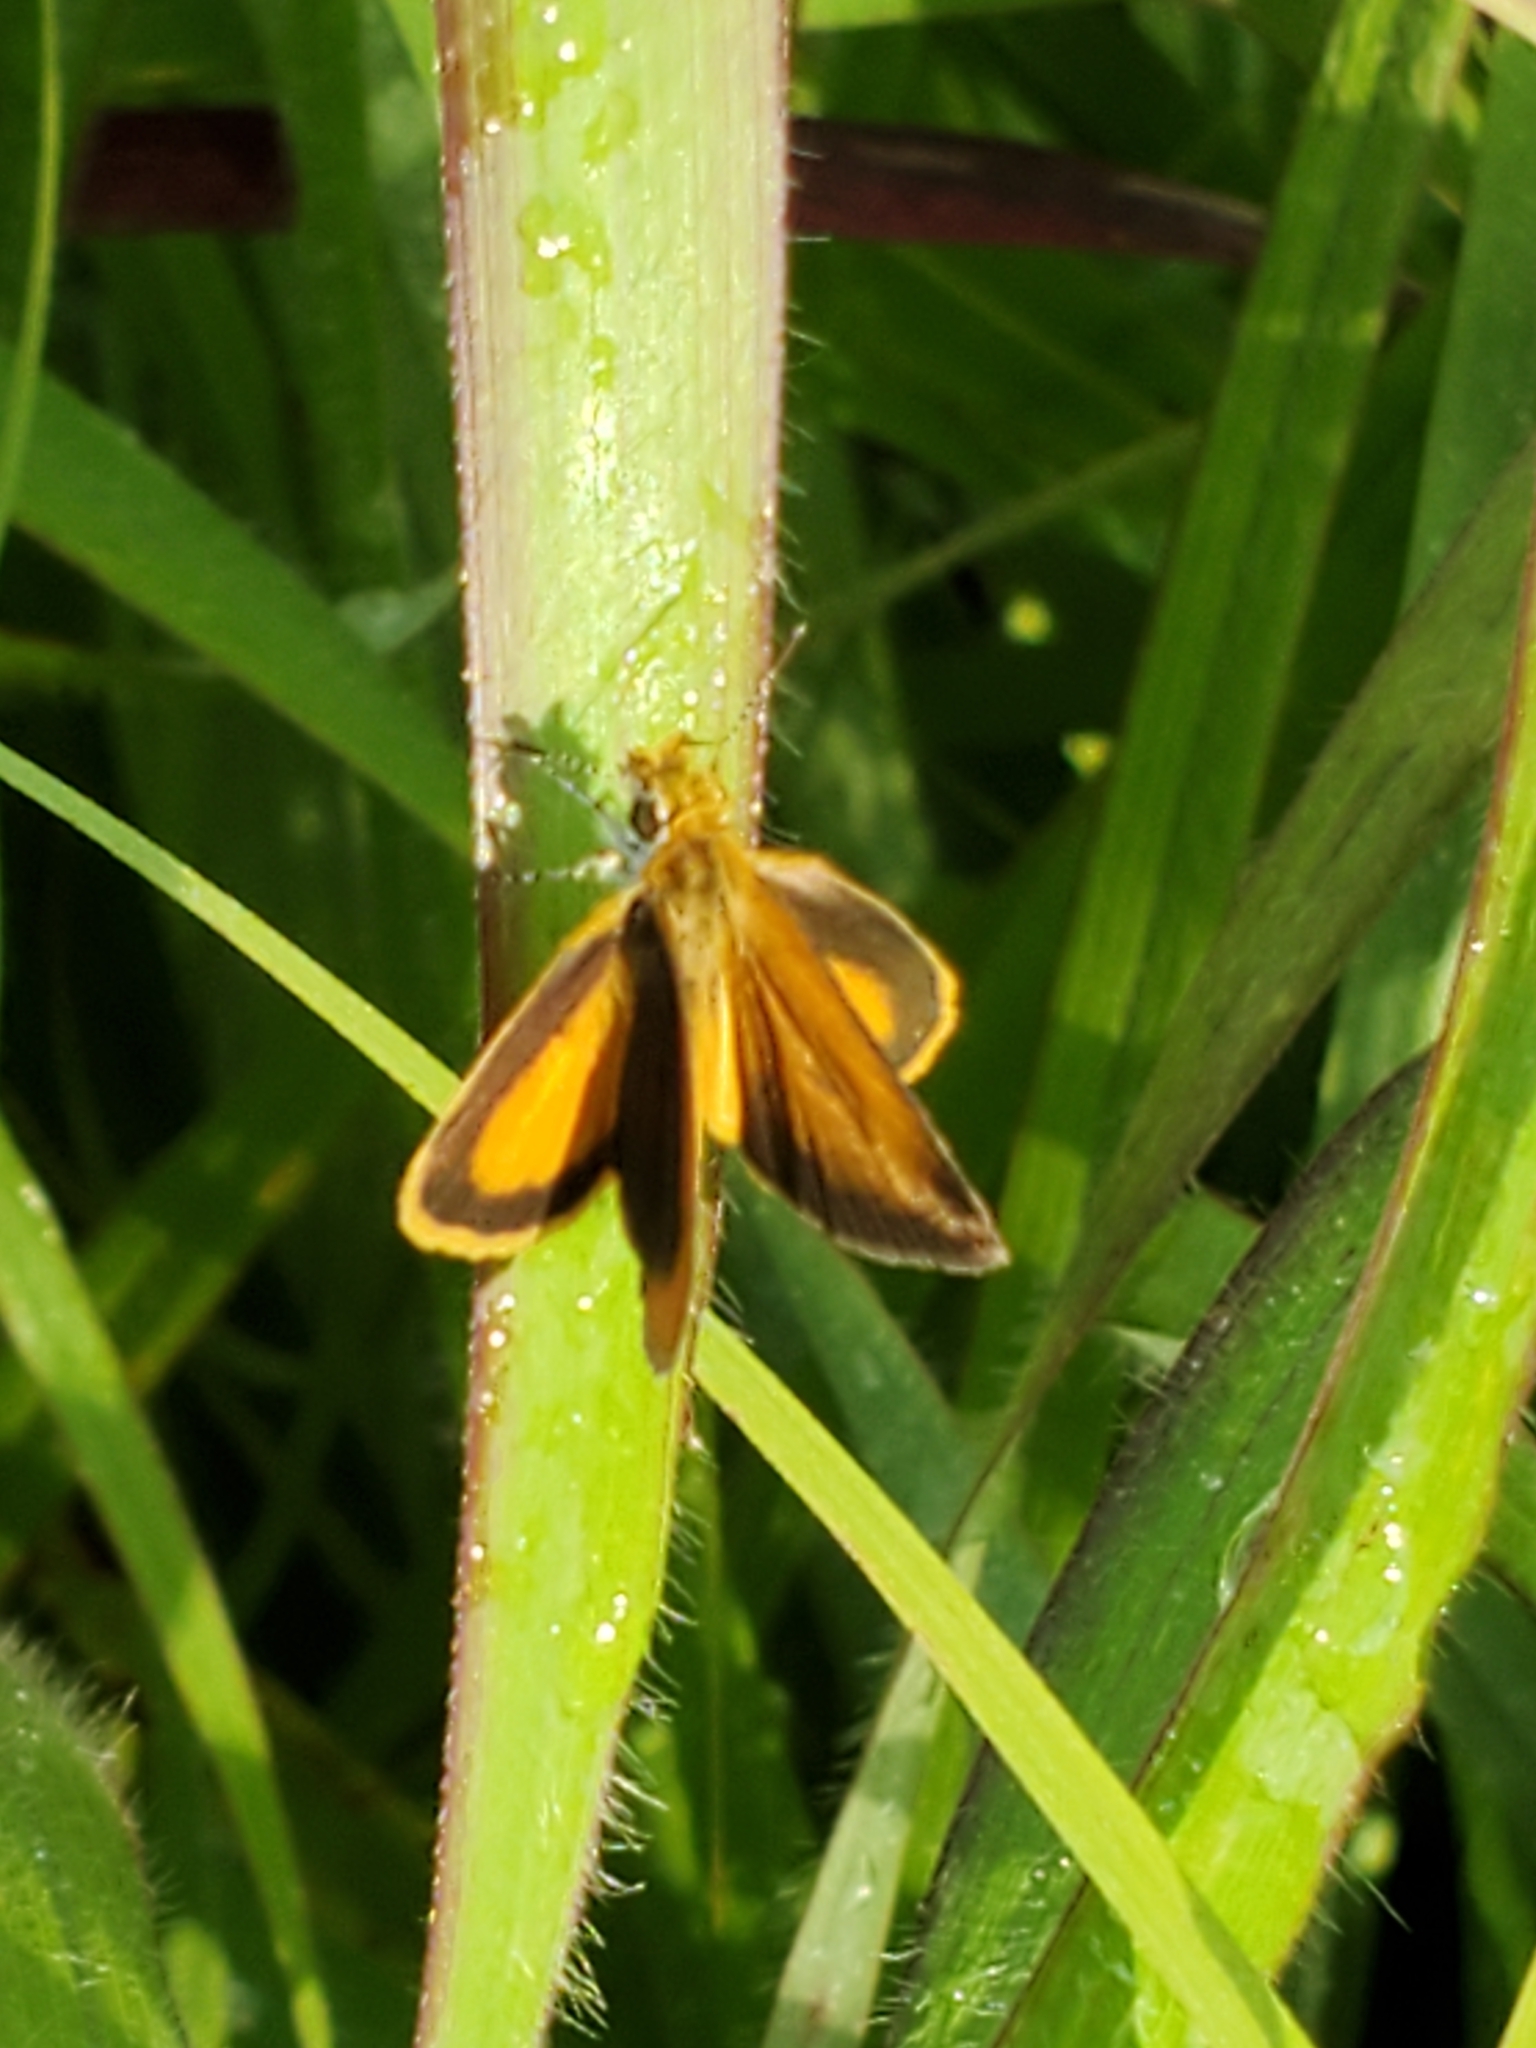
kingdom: Animalia
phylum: Arthropoda
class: Insecta
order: Lepidoptera
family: Hesperiidae
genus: Ancyloxypha
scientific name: Ancyloxypha numitor
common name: Least skipper
